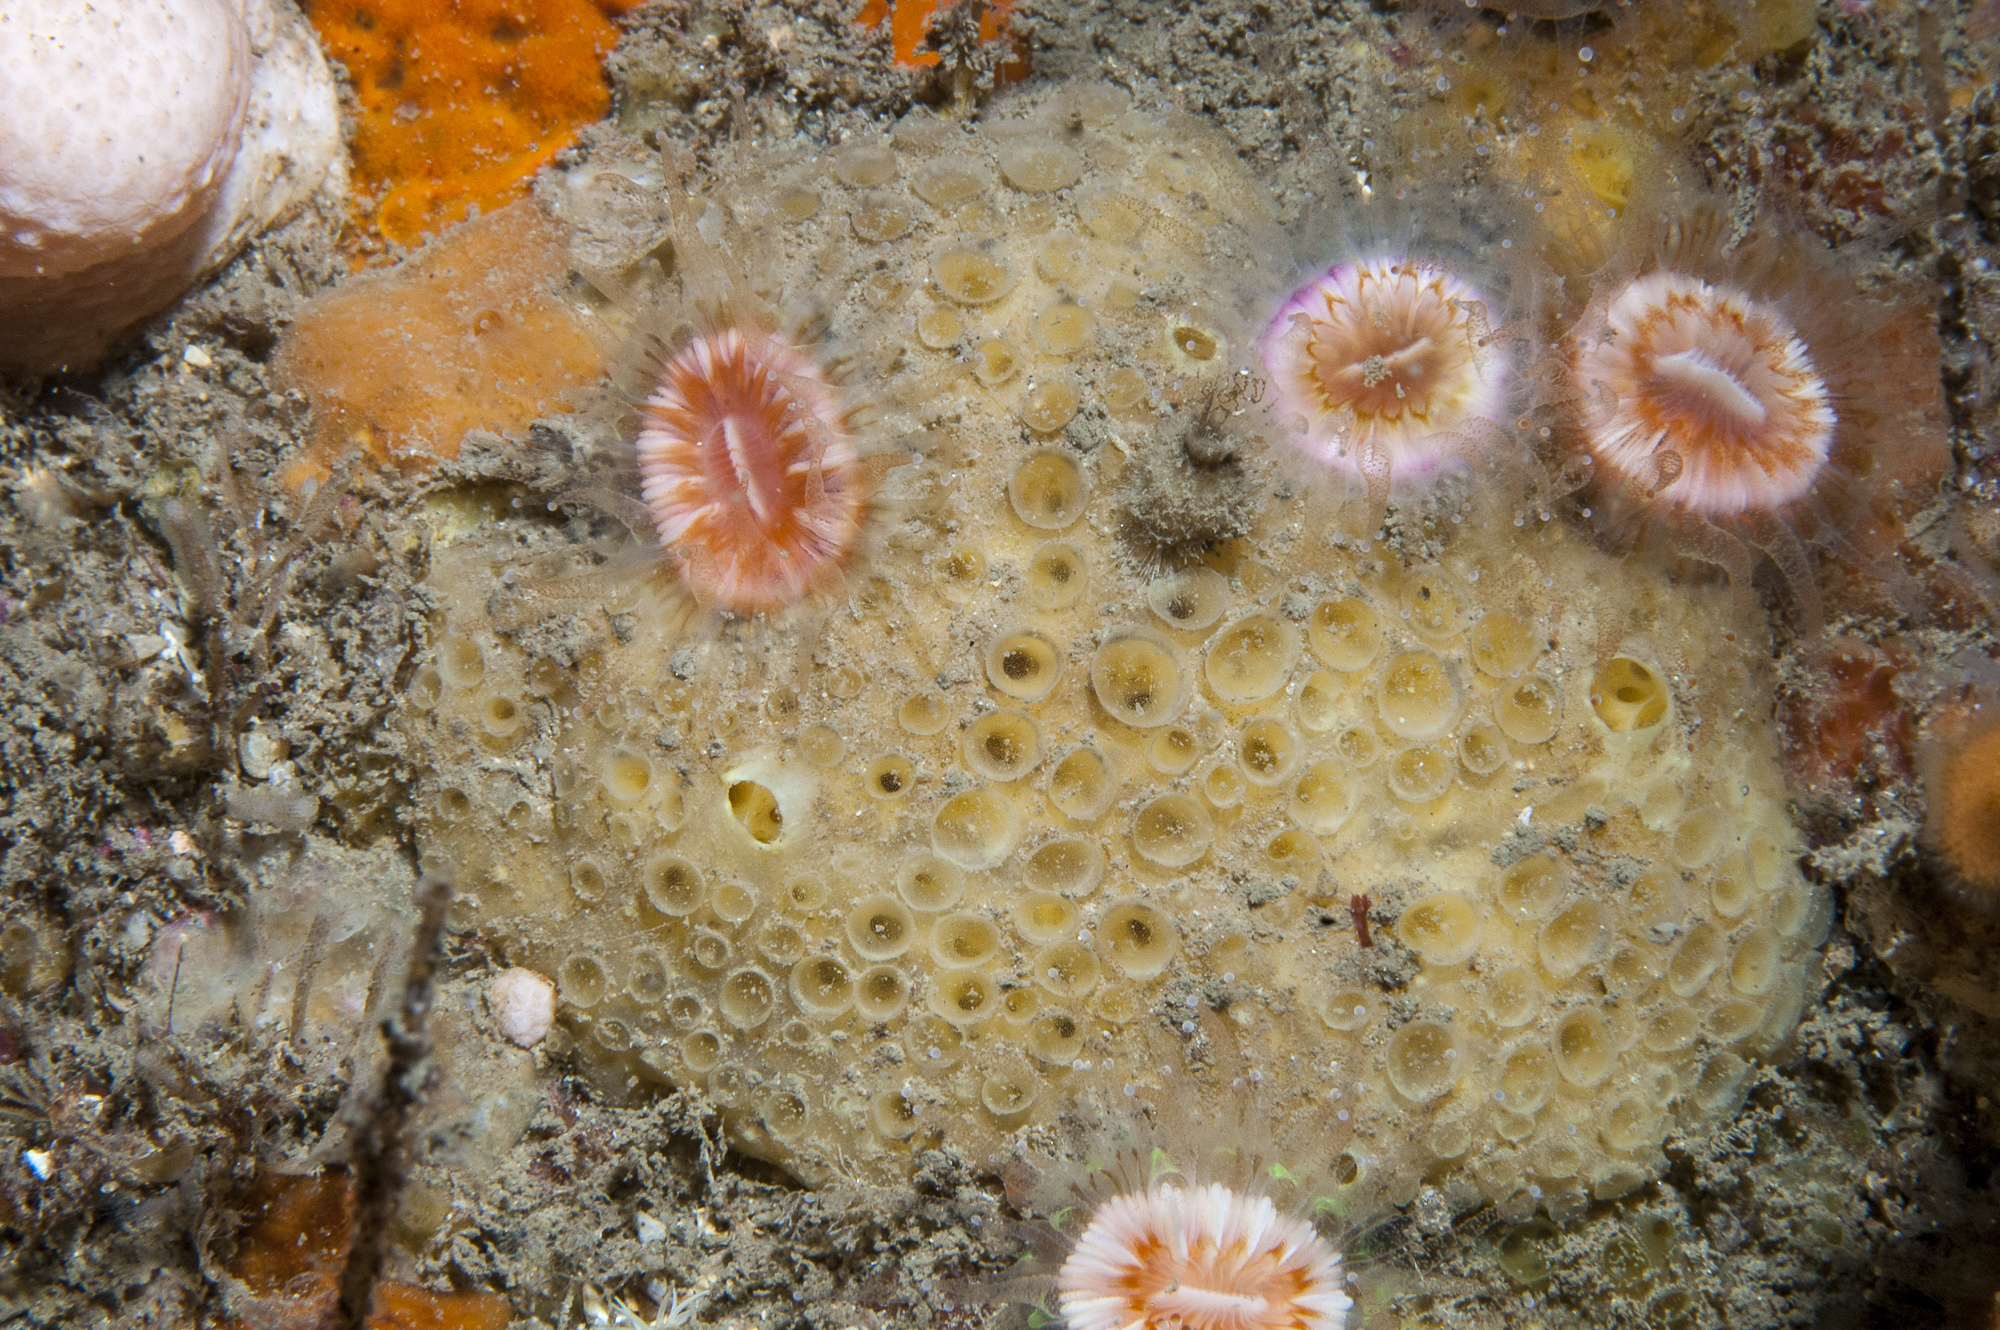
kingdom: Animalia
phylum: Porifera
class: Demospongiae
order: Poecilosclerida
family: Coelosphaeridae
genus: Lissodendoryx
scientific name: Lissodendoryx jenjonesae
